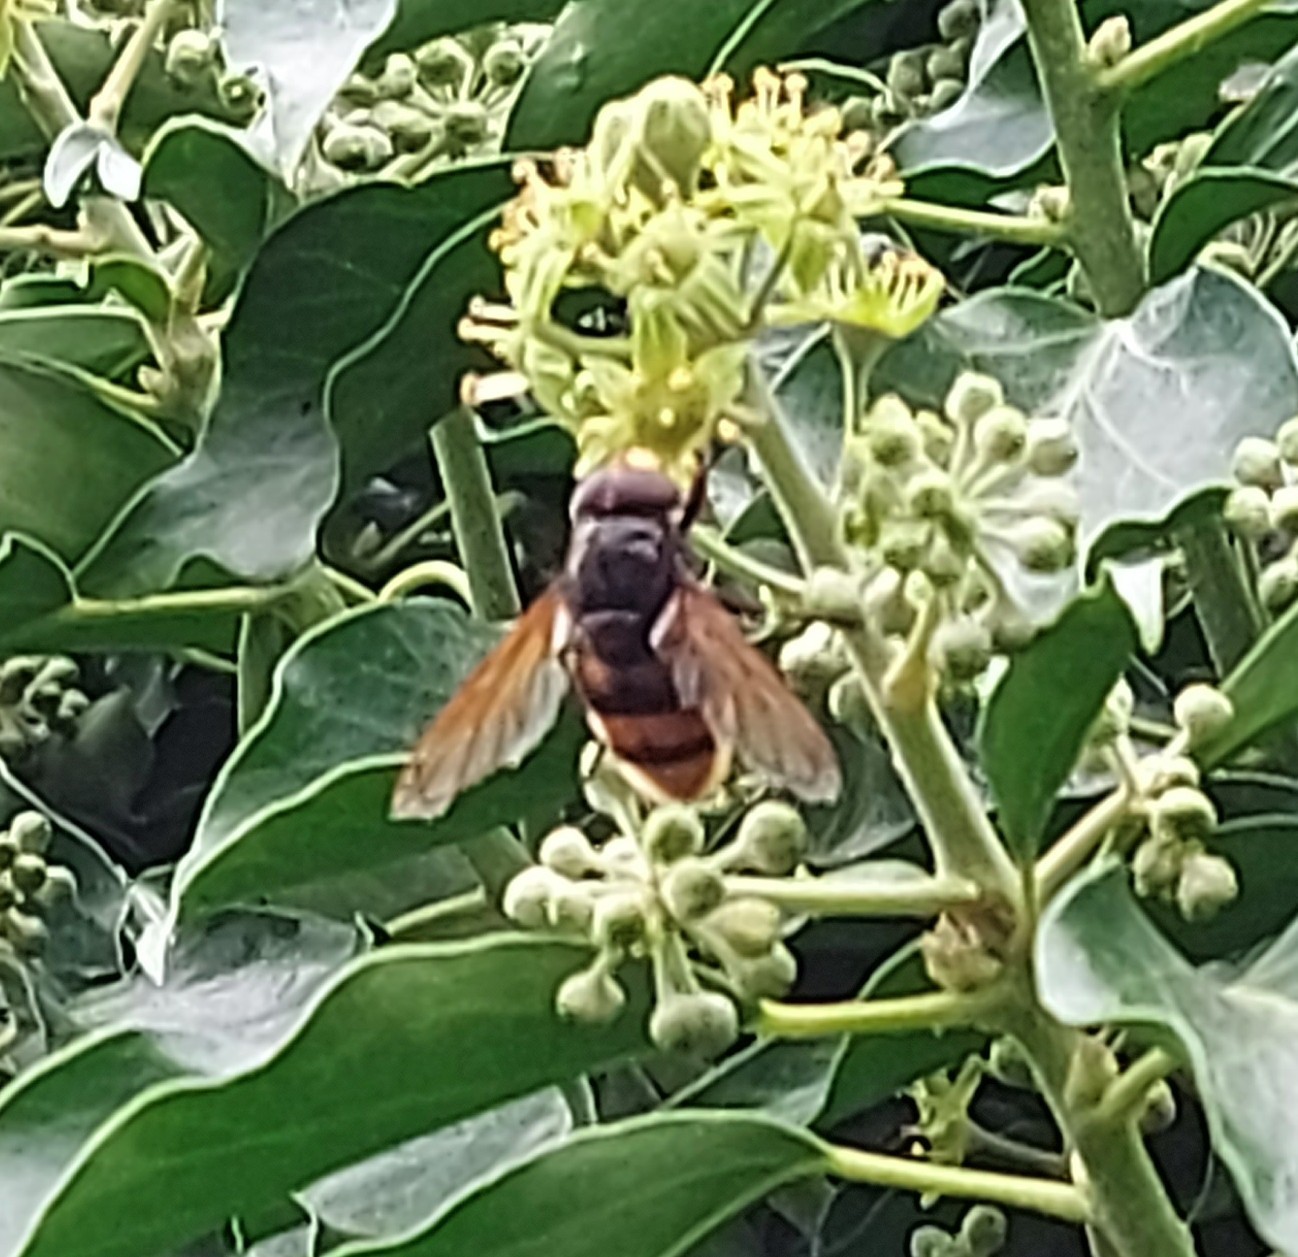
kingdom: Animalia
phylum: Arthropoda
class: Insecta
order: Diptera
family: Syrphidae
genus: Volucella
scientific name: Volucella zonaria
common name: Hornet hoverfly
